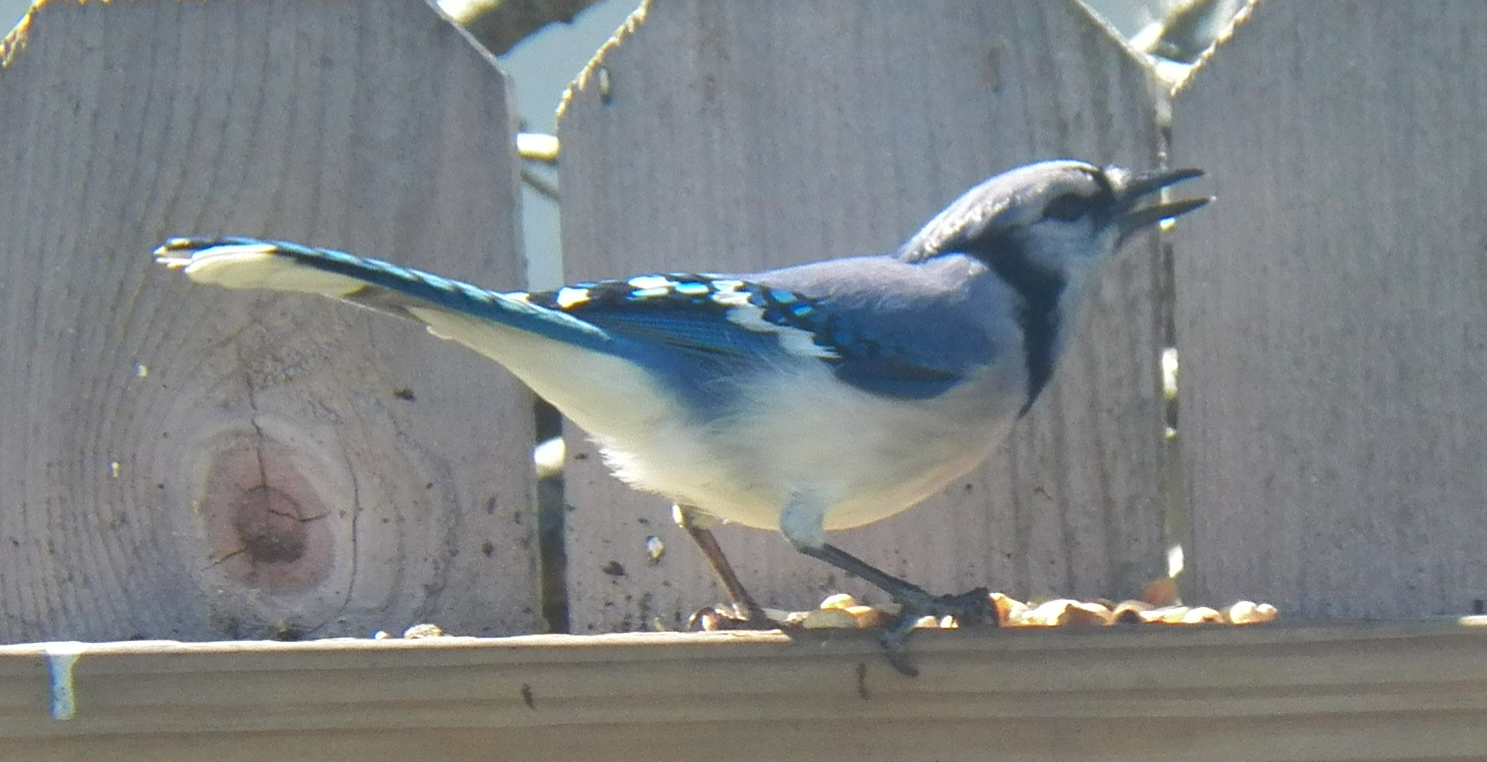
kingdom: Animalia
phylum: Chordata
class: Aves
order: Passeriformes
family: Corvidae
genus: Cyanocitta
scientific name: Cyanocitta cristata
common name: Blue jay
